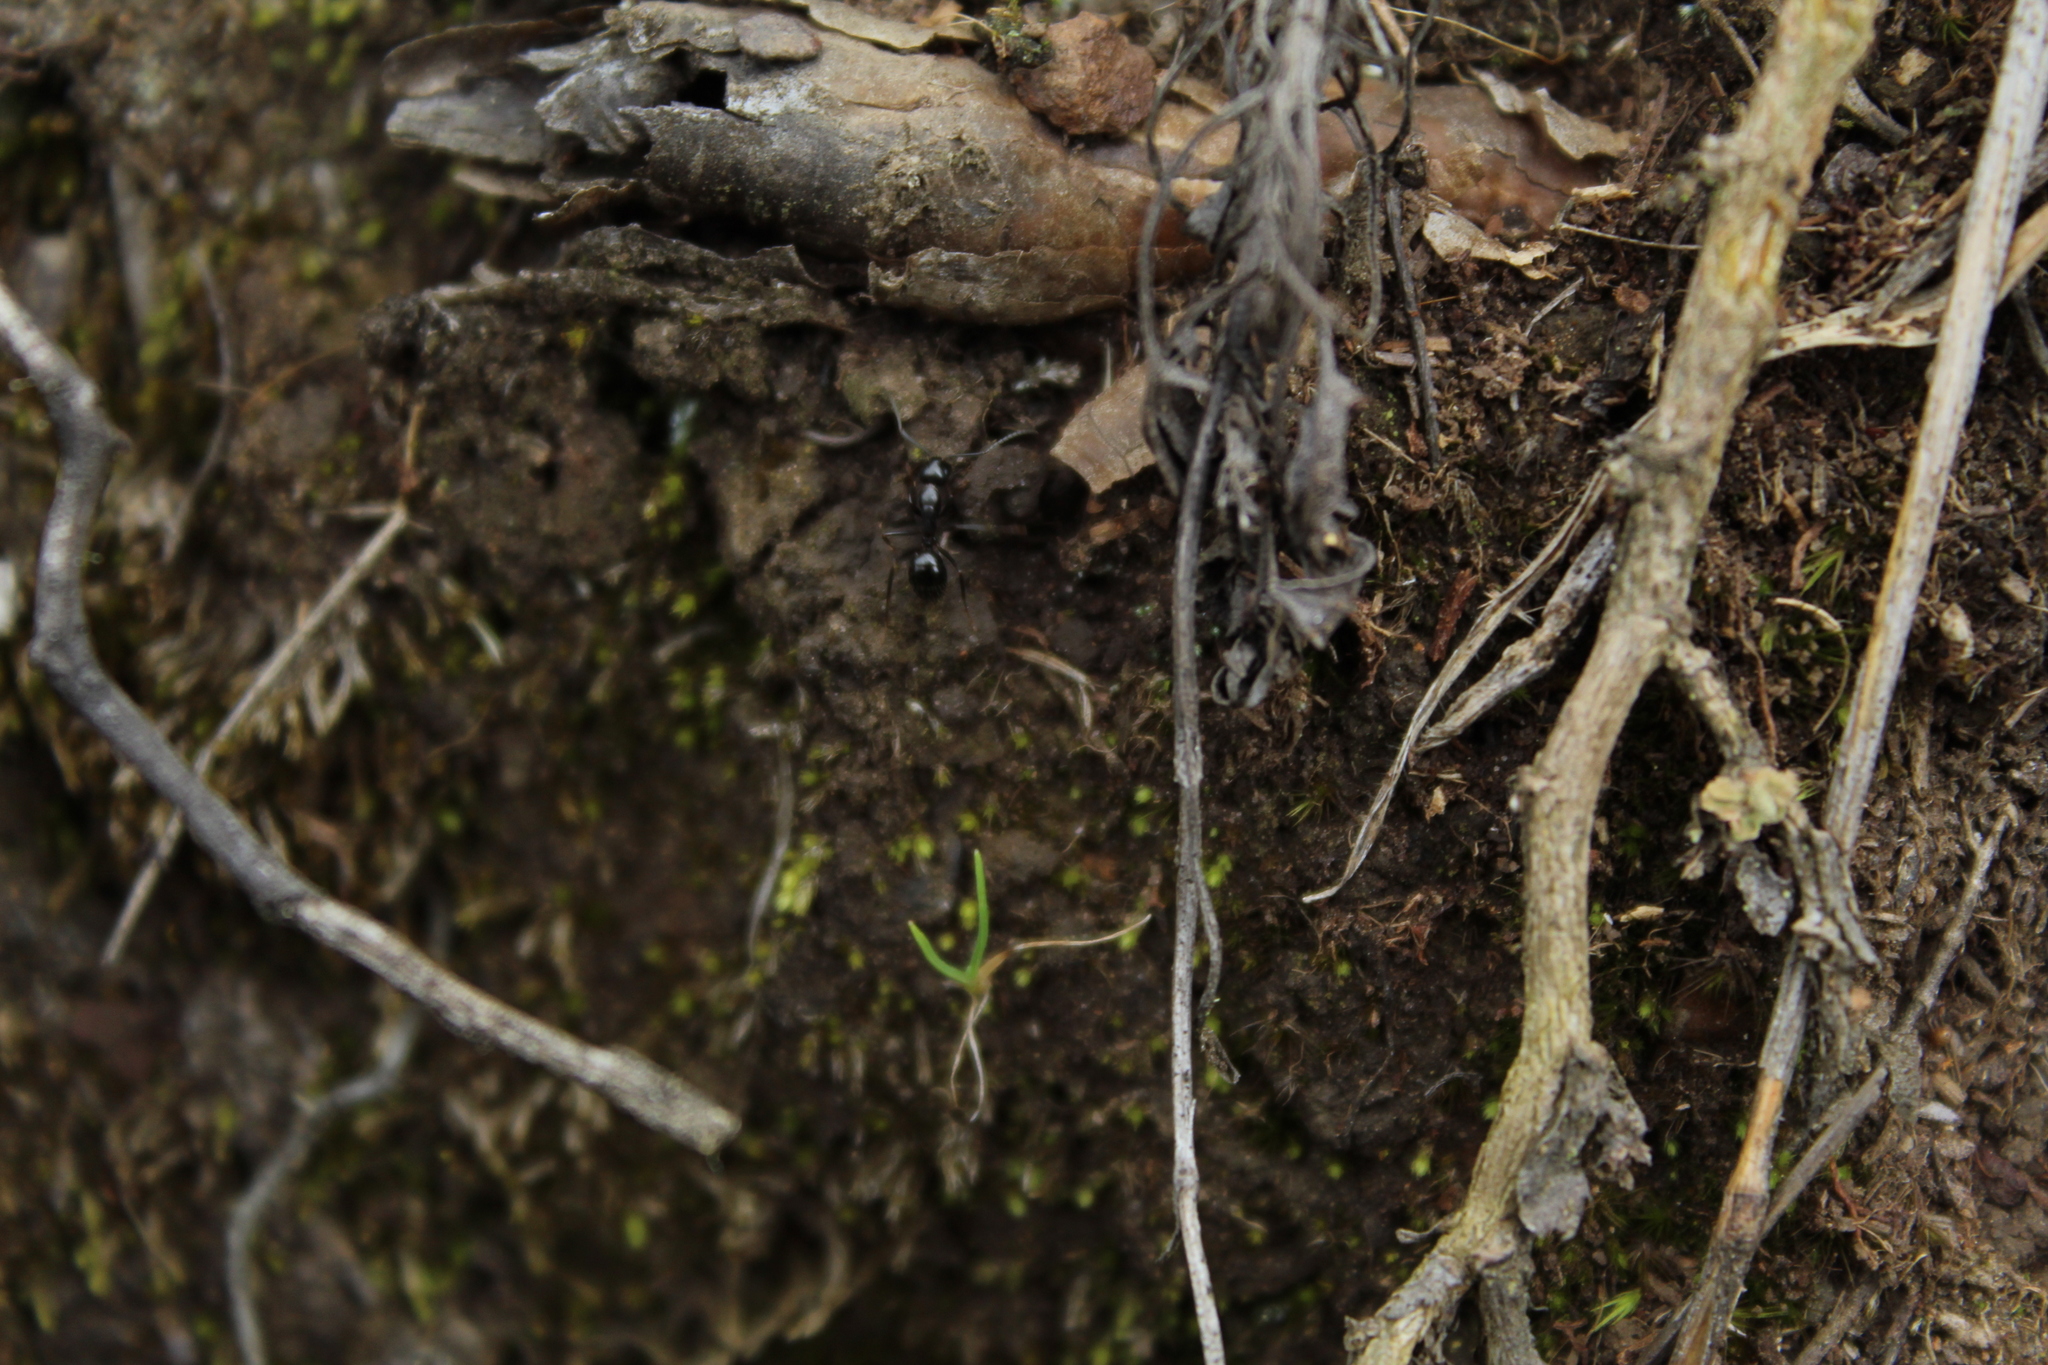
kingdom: Animalia
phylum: Arthropoda
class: Insecta
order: Hymenoptera
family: Formicidae
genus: Camponotus
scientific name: Camponotus
